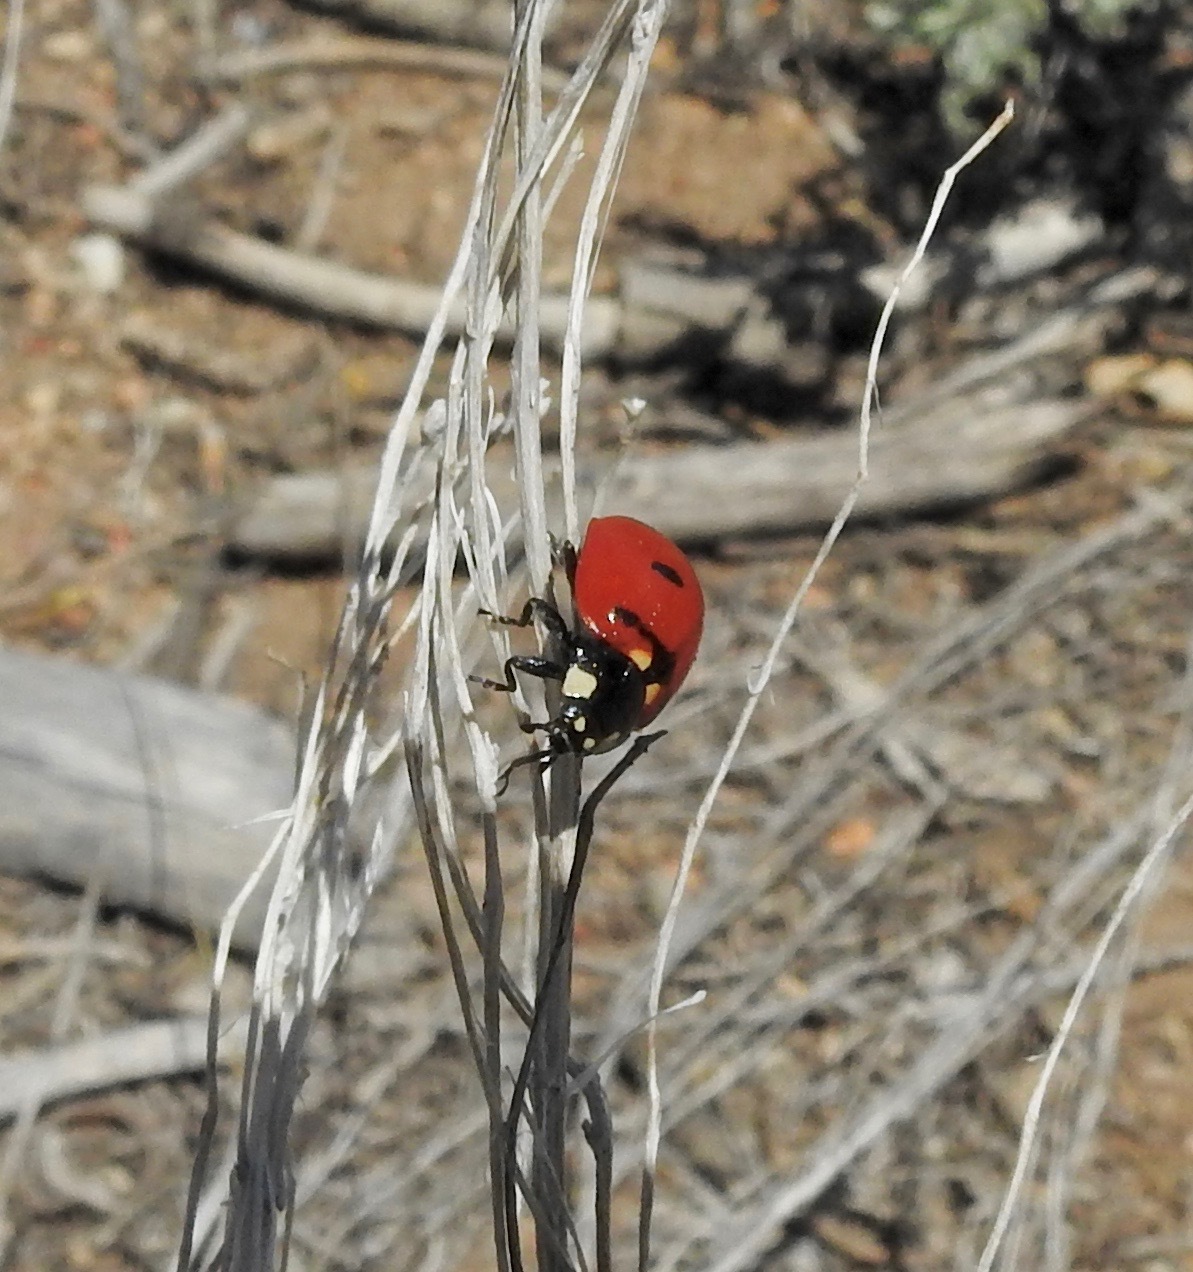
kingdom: Animalia
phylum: Arthropoda
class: Insecta
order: Coleoptera
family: Coccinellidae
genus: Coccinella
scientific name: Coccinella transversoguttata
